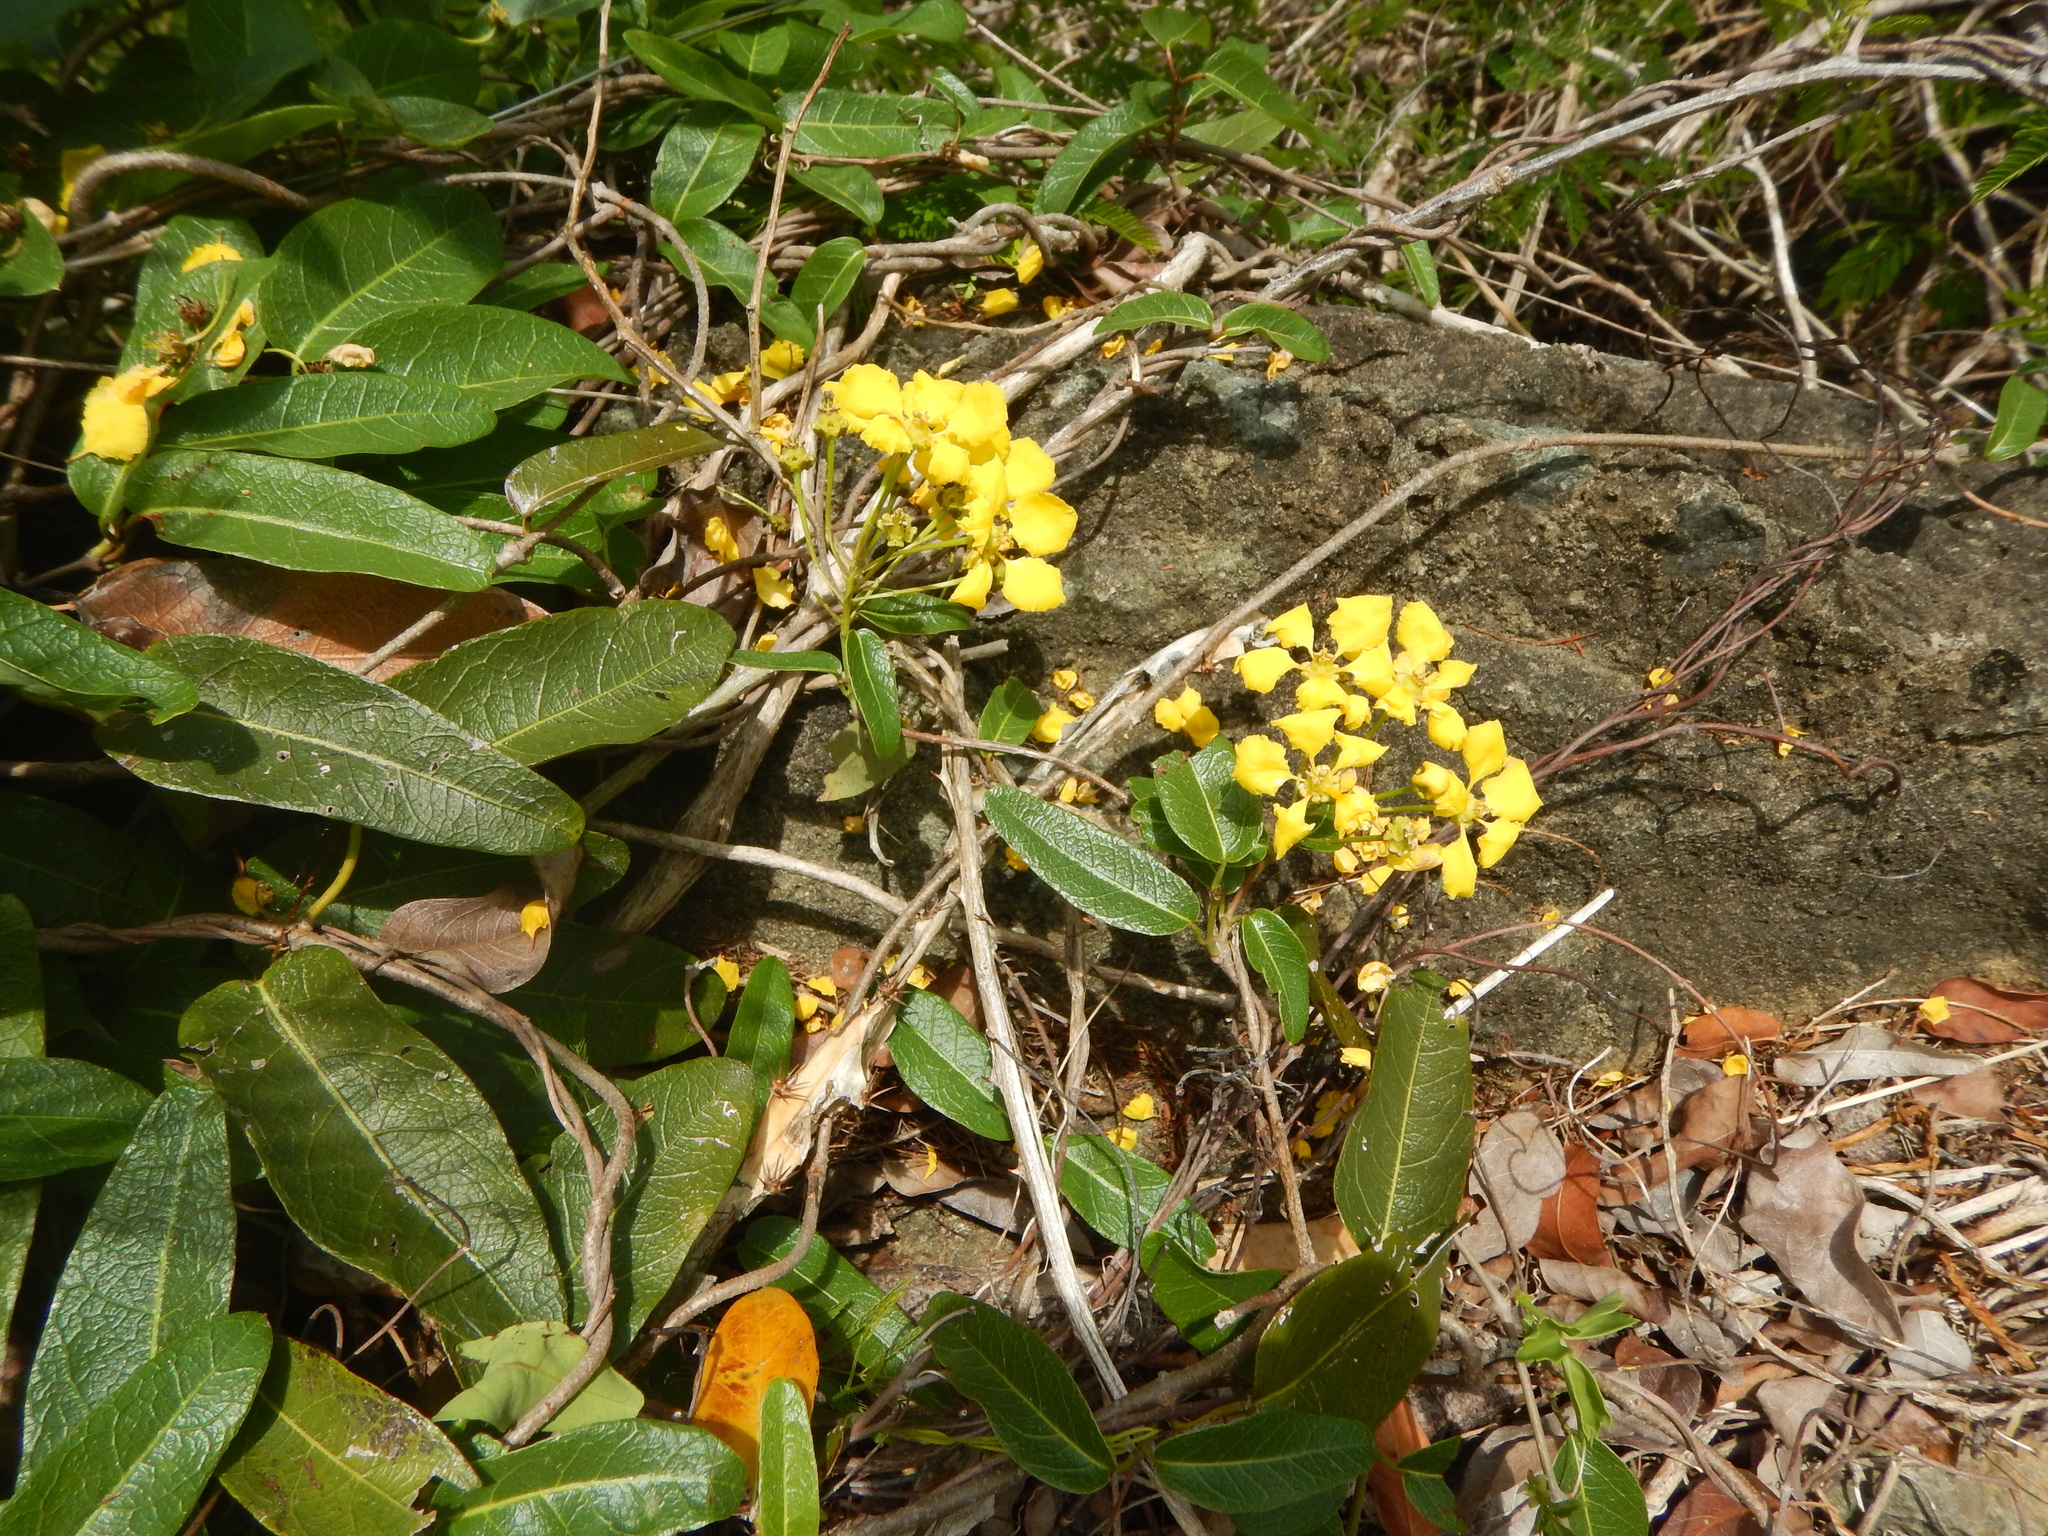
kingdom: Plantae
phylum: Tracheophyta
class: Magnoliopsida
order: Malpighiales
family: Malpighiaceae
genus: Stigmaphyllon
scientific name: Stigmaphyllon emarginatum
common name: Monarch amazonvine
